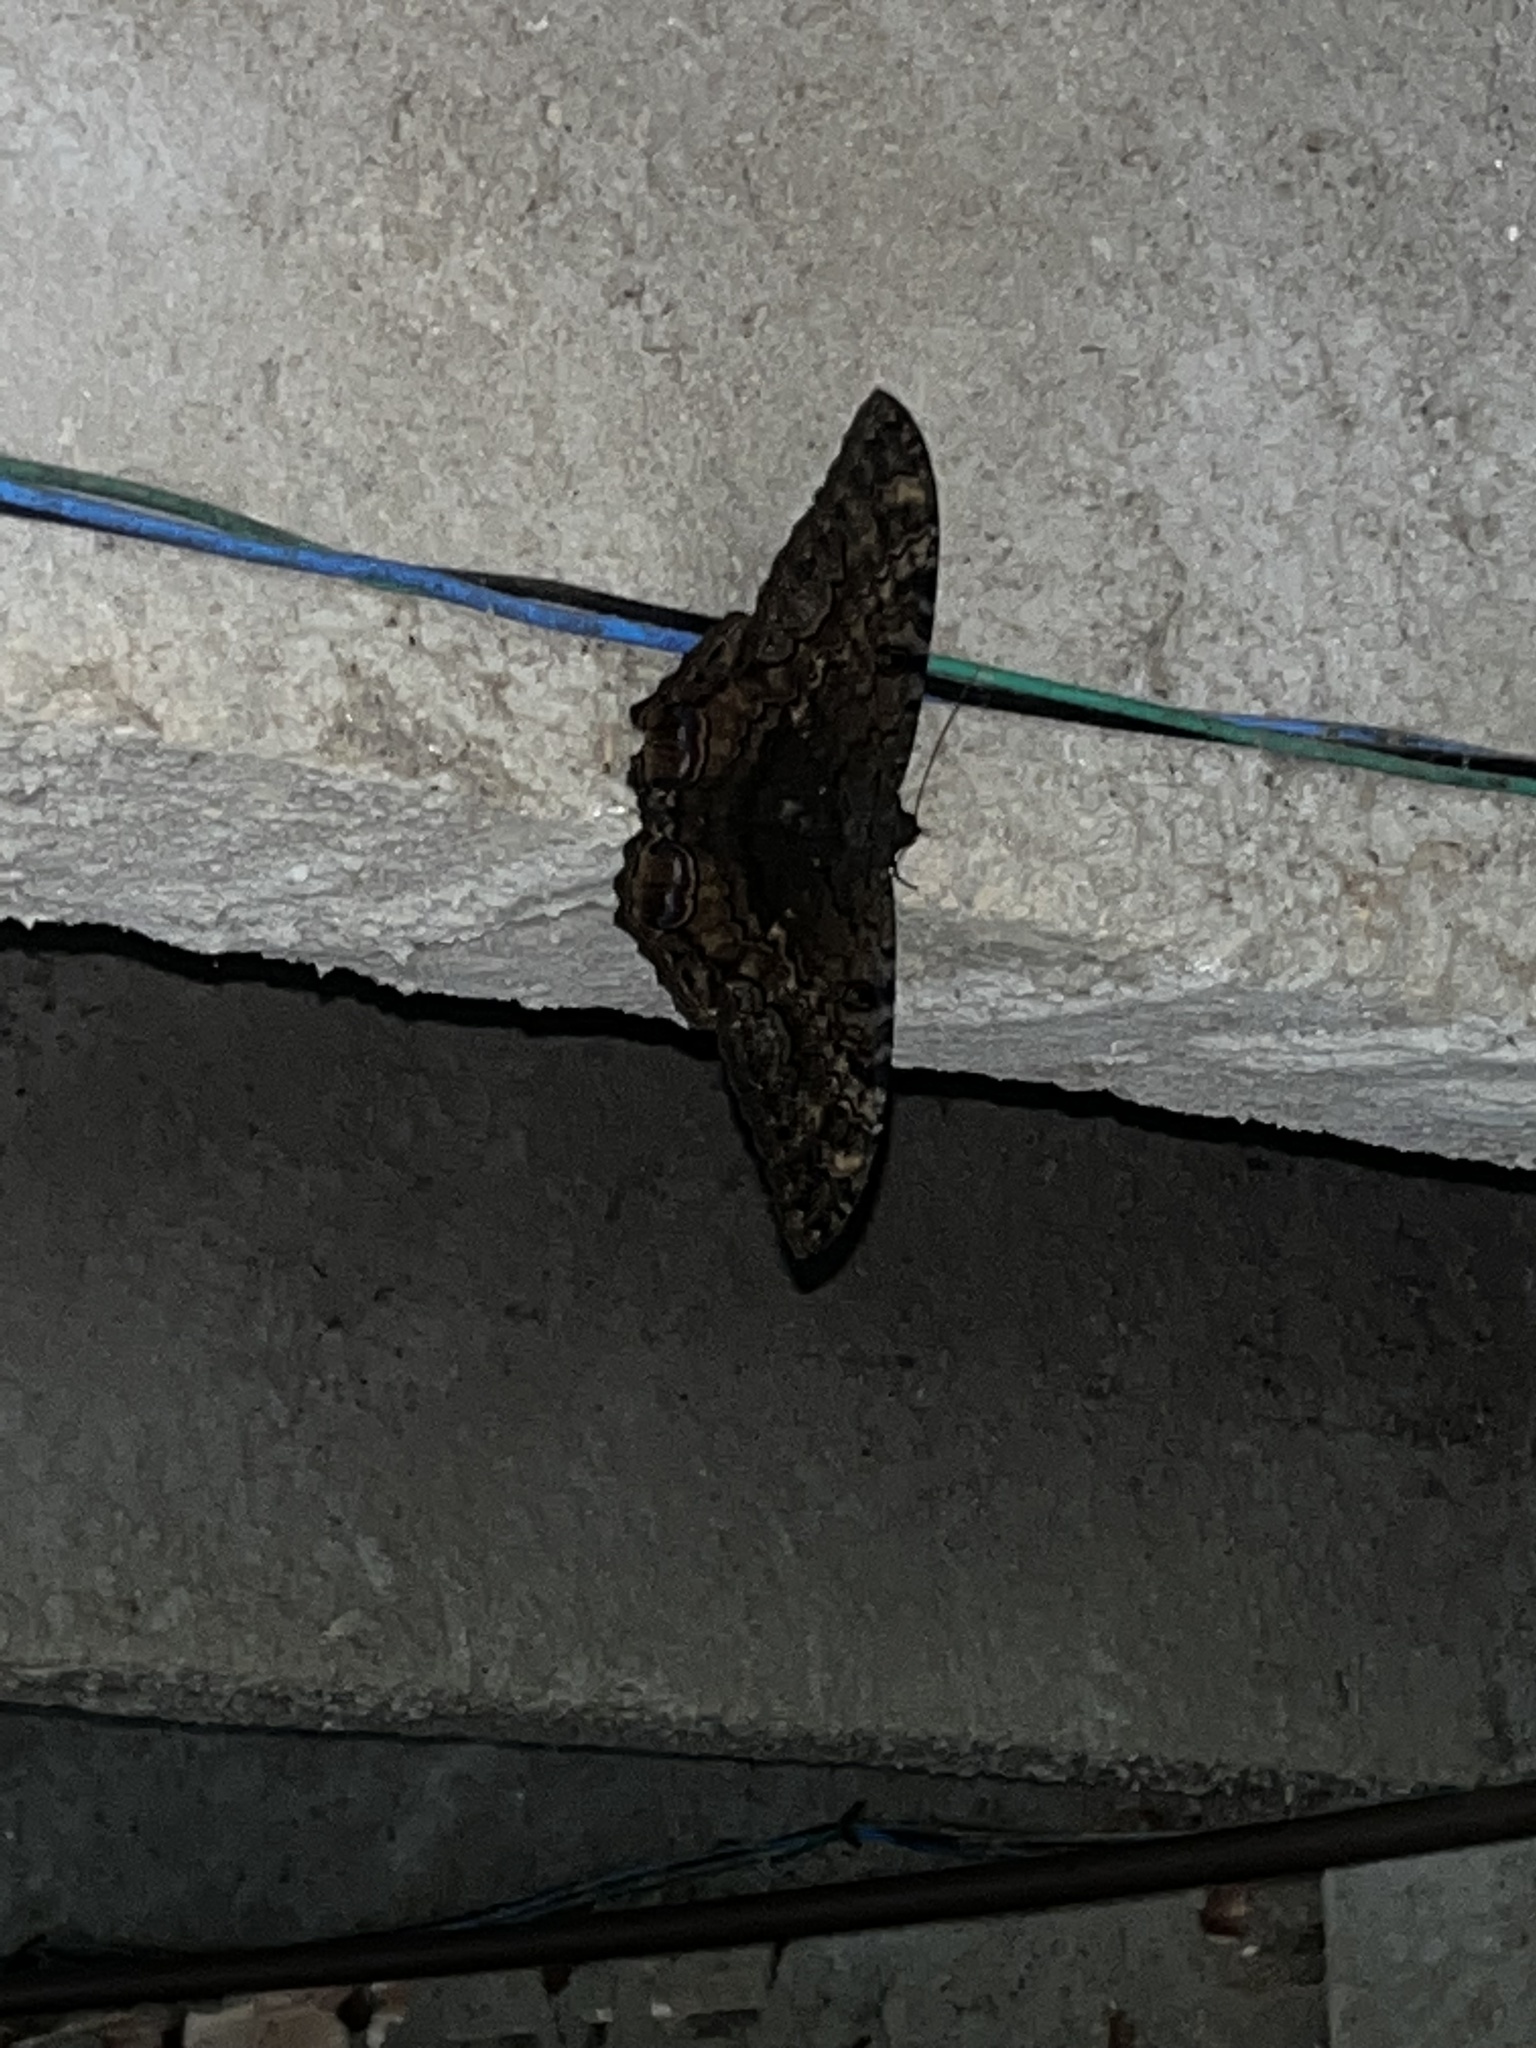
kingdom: Animalia
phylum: Arthropoda
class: Insecta
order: Lepidoptera
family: Erebidae
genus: Ascalapha
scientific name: Ascalapha odorata
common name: Black witch
